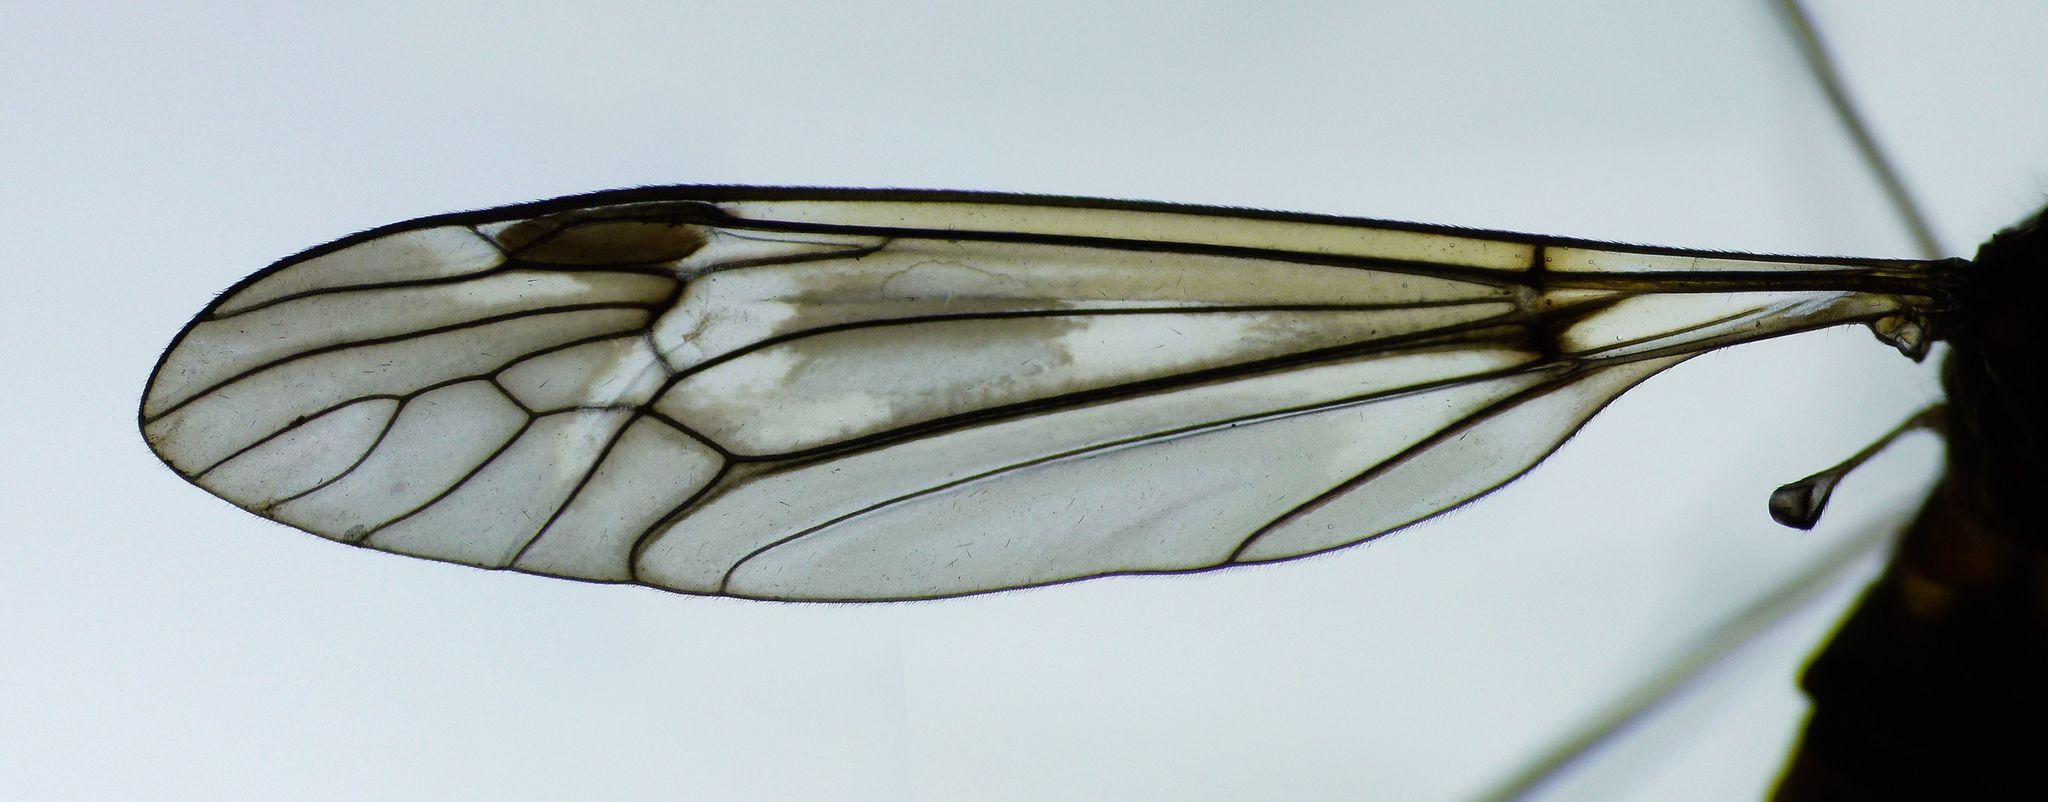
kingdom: Animalia
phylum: Arthropoda
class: Insecta
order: Diptera
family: Tipulidae
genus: Leptotarsus
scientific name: Leptotarsus lunatus
